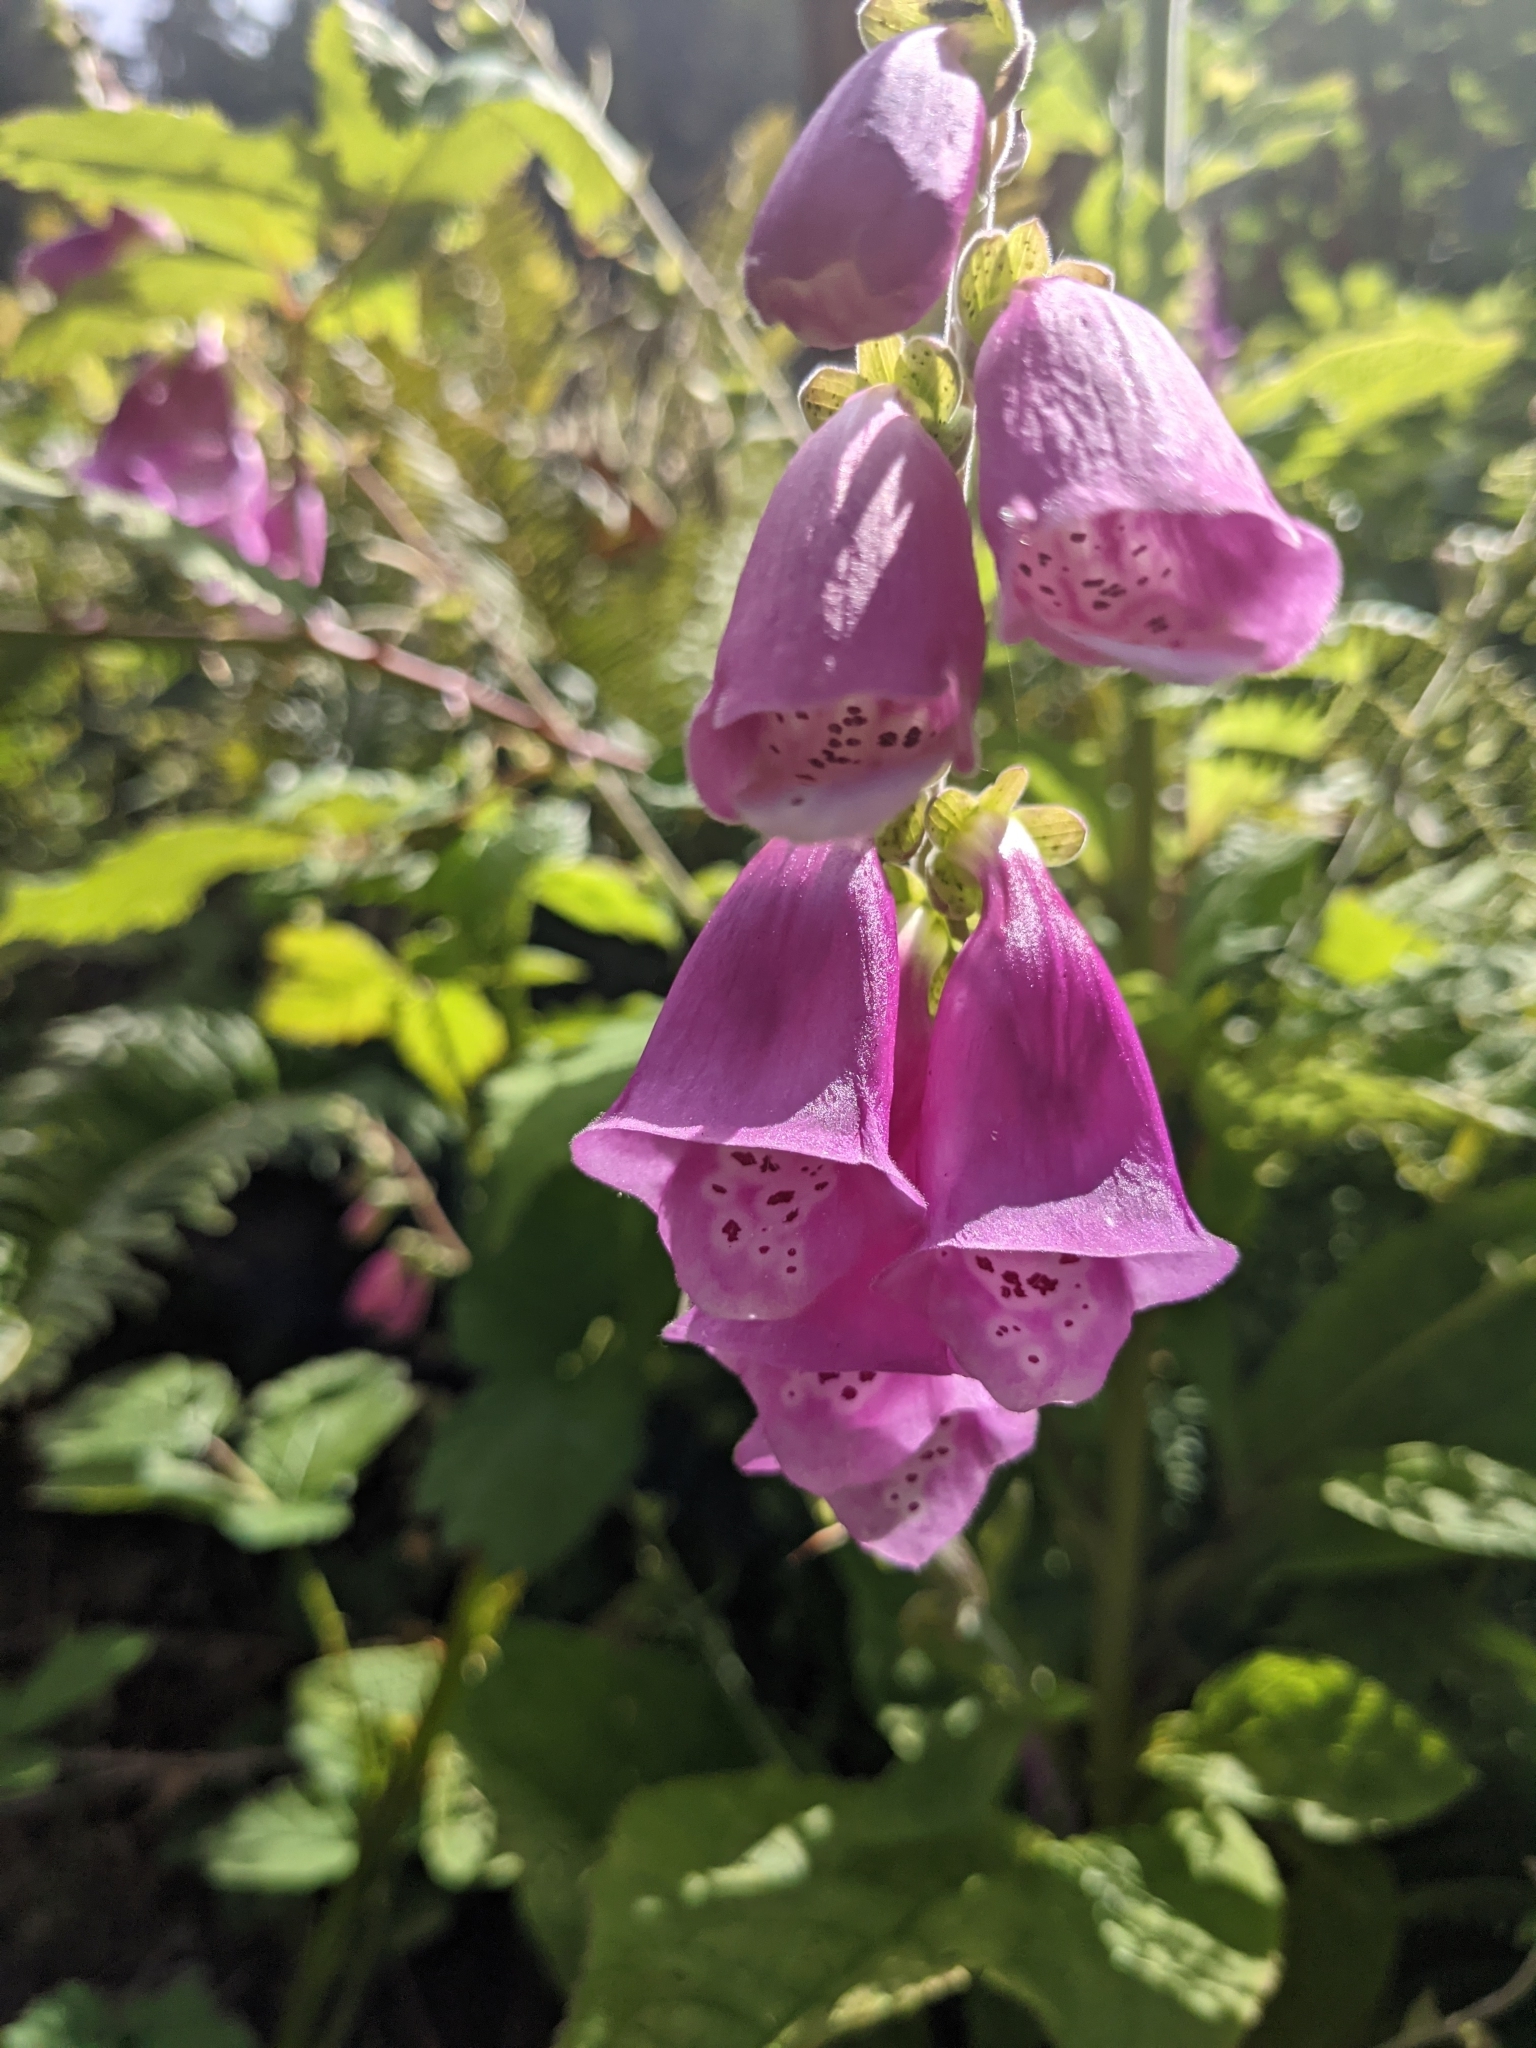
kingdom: Plantae
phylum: Tracheophyta
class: Magnoliopsida
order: Lamiales
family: Plantaginaceae
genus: Digitalis
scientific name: Digitalis purpurea
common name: Foxglove
